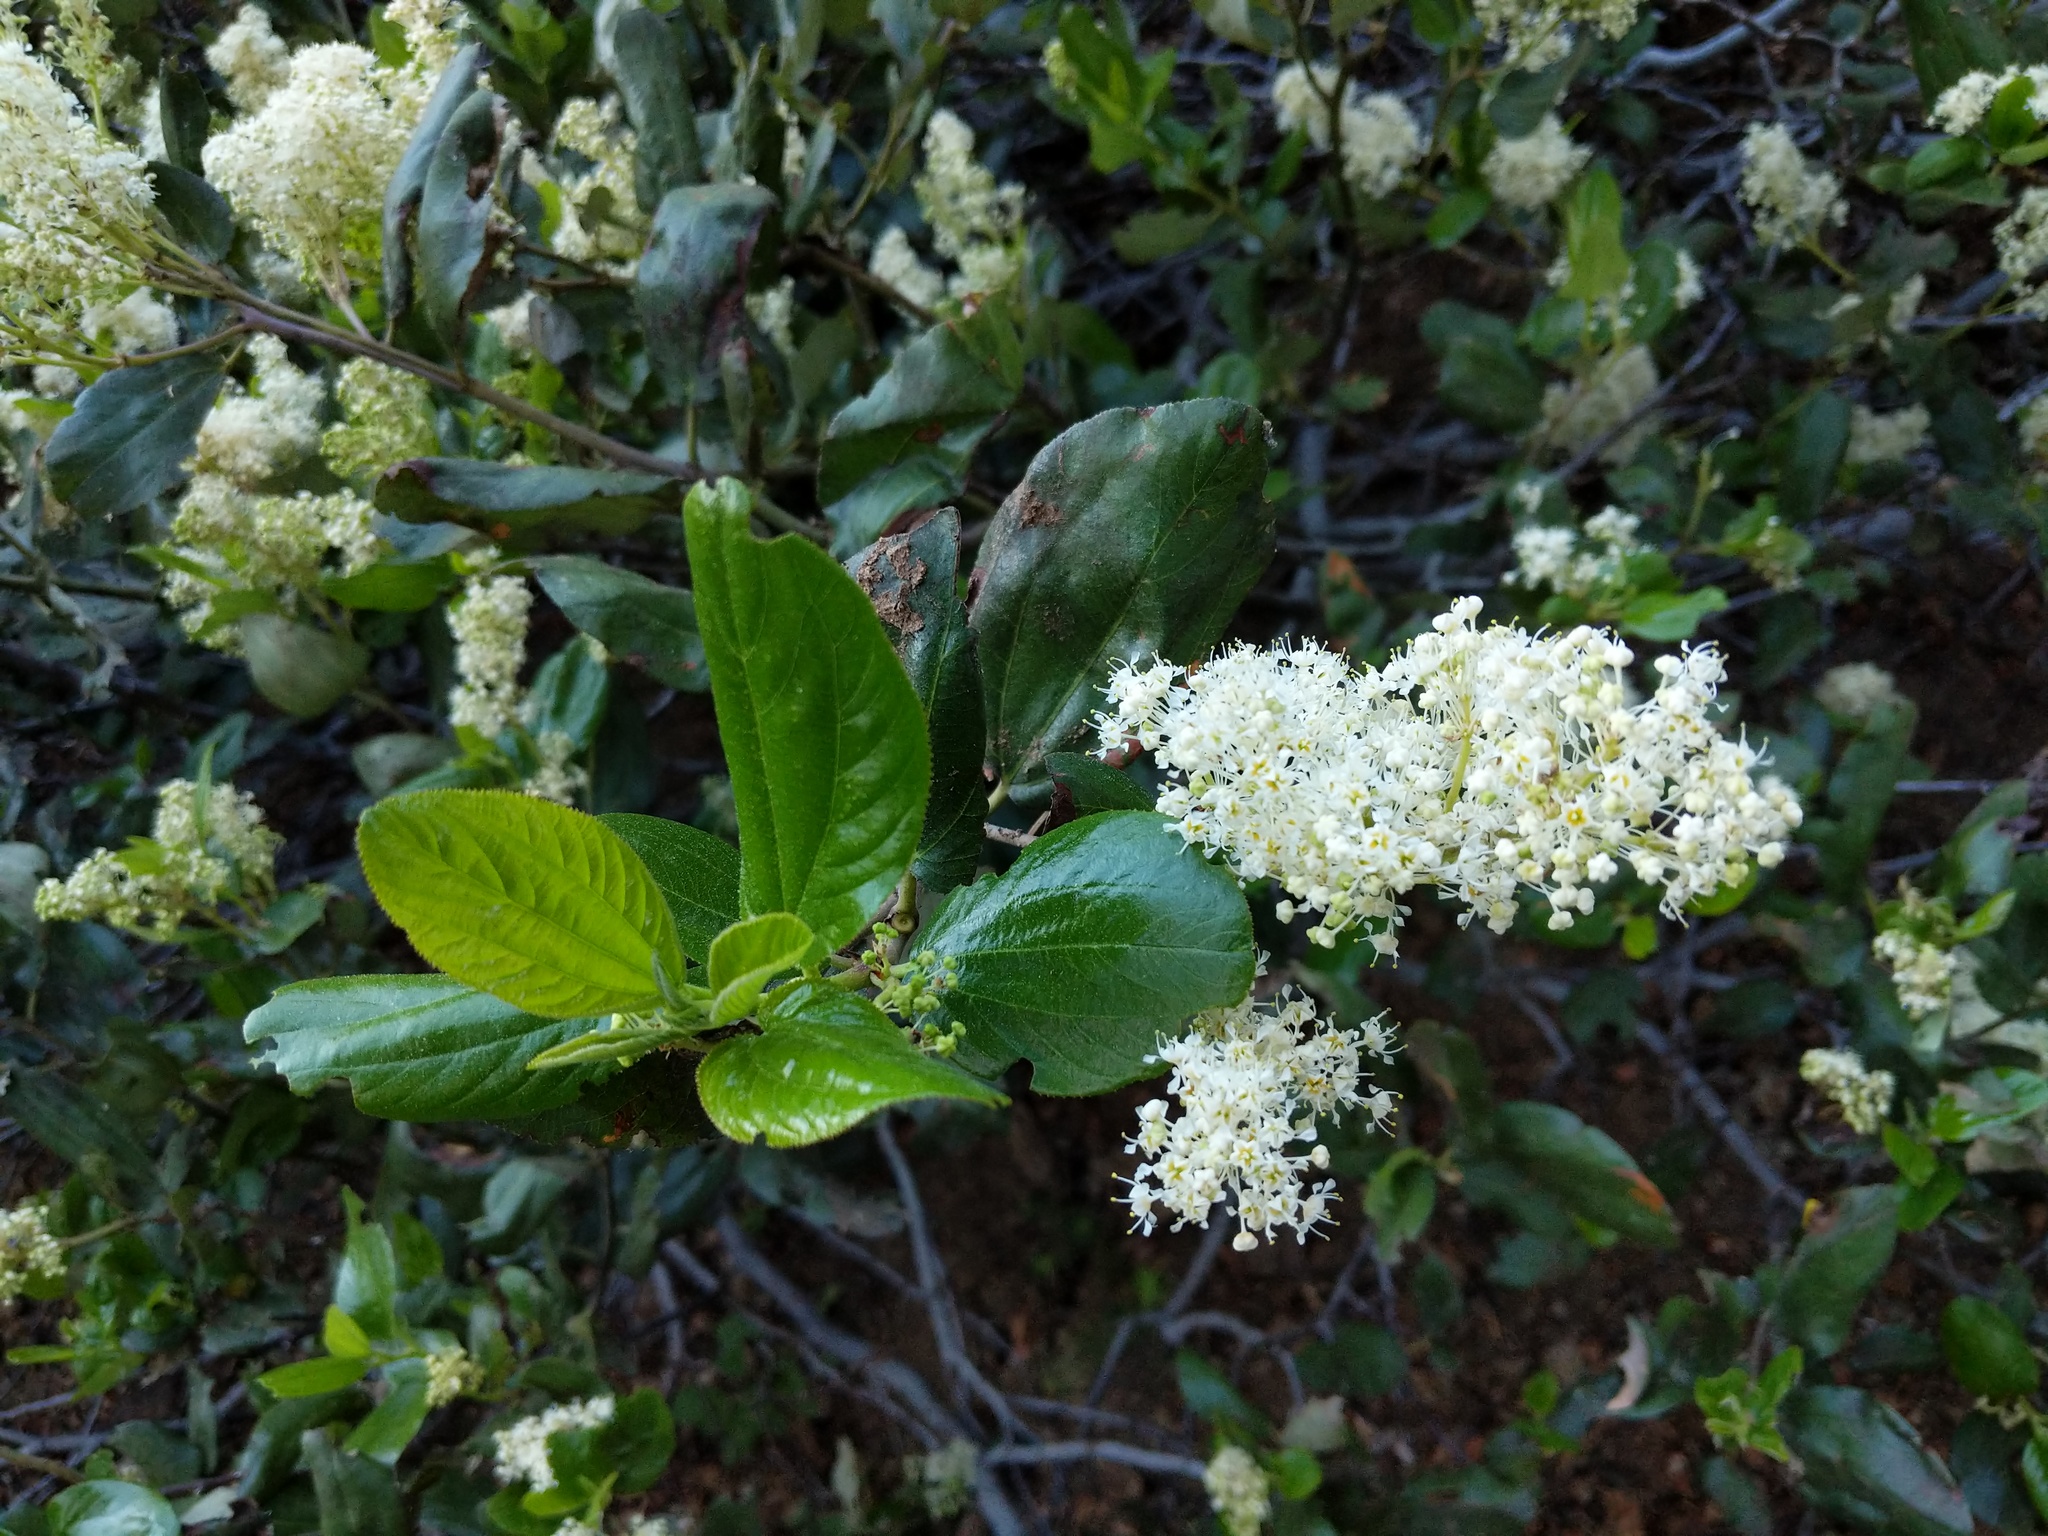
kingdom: Plantae
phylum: Tracheophyta
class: Magnoliopsida
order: Rosales
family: Rhamnaceae
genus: Ceanothus
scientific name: Ceanothus velutinus
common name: Snowbrush
